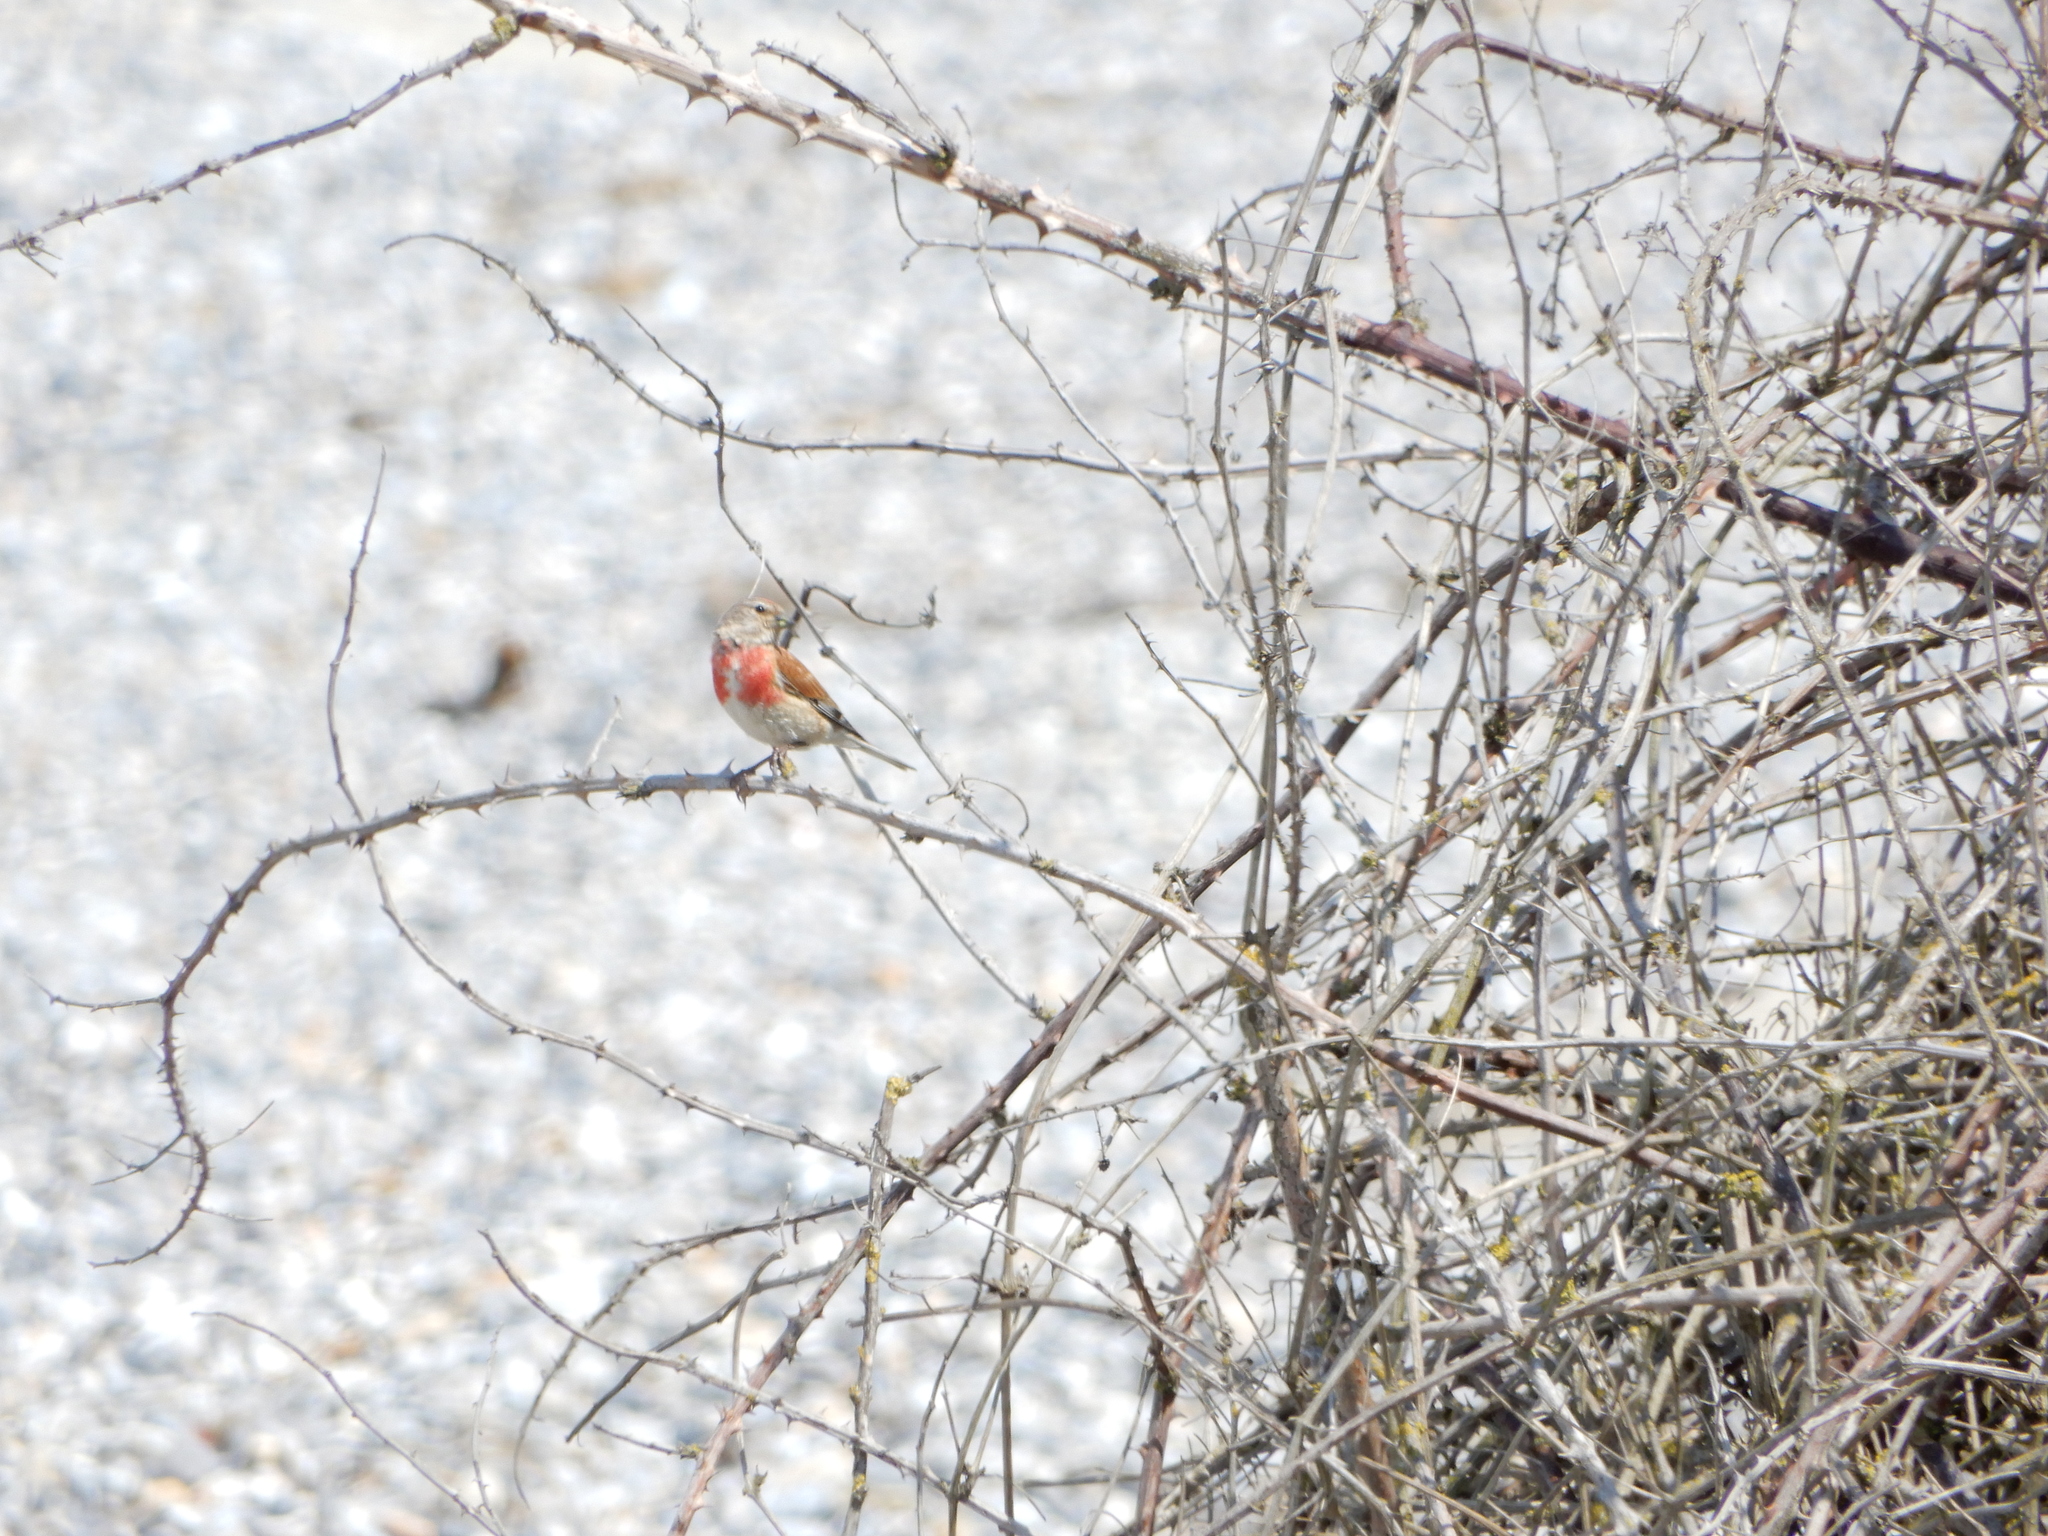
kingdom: Animalia
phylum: Chordata
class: Aves
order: Passeriformes
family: Fringillidae
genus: Linaria
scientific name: Linaria cannabina
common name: Common linnet
